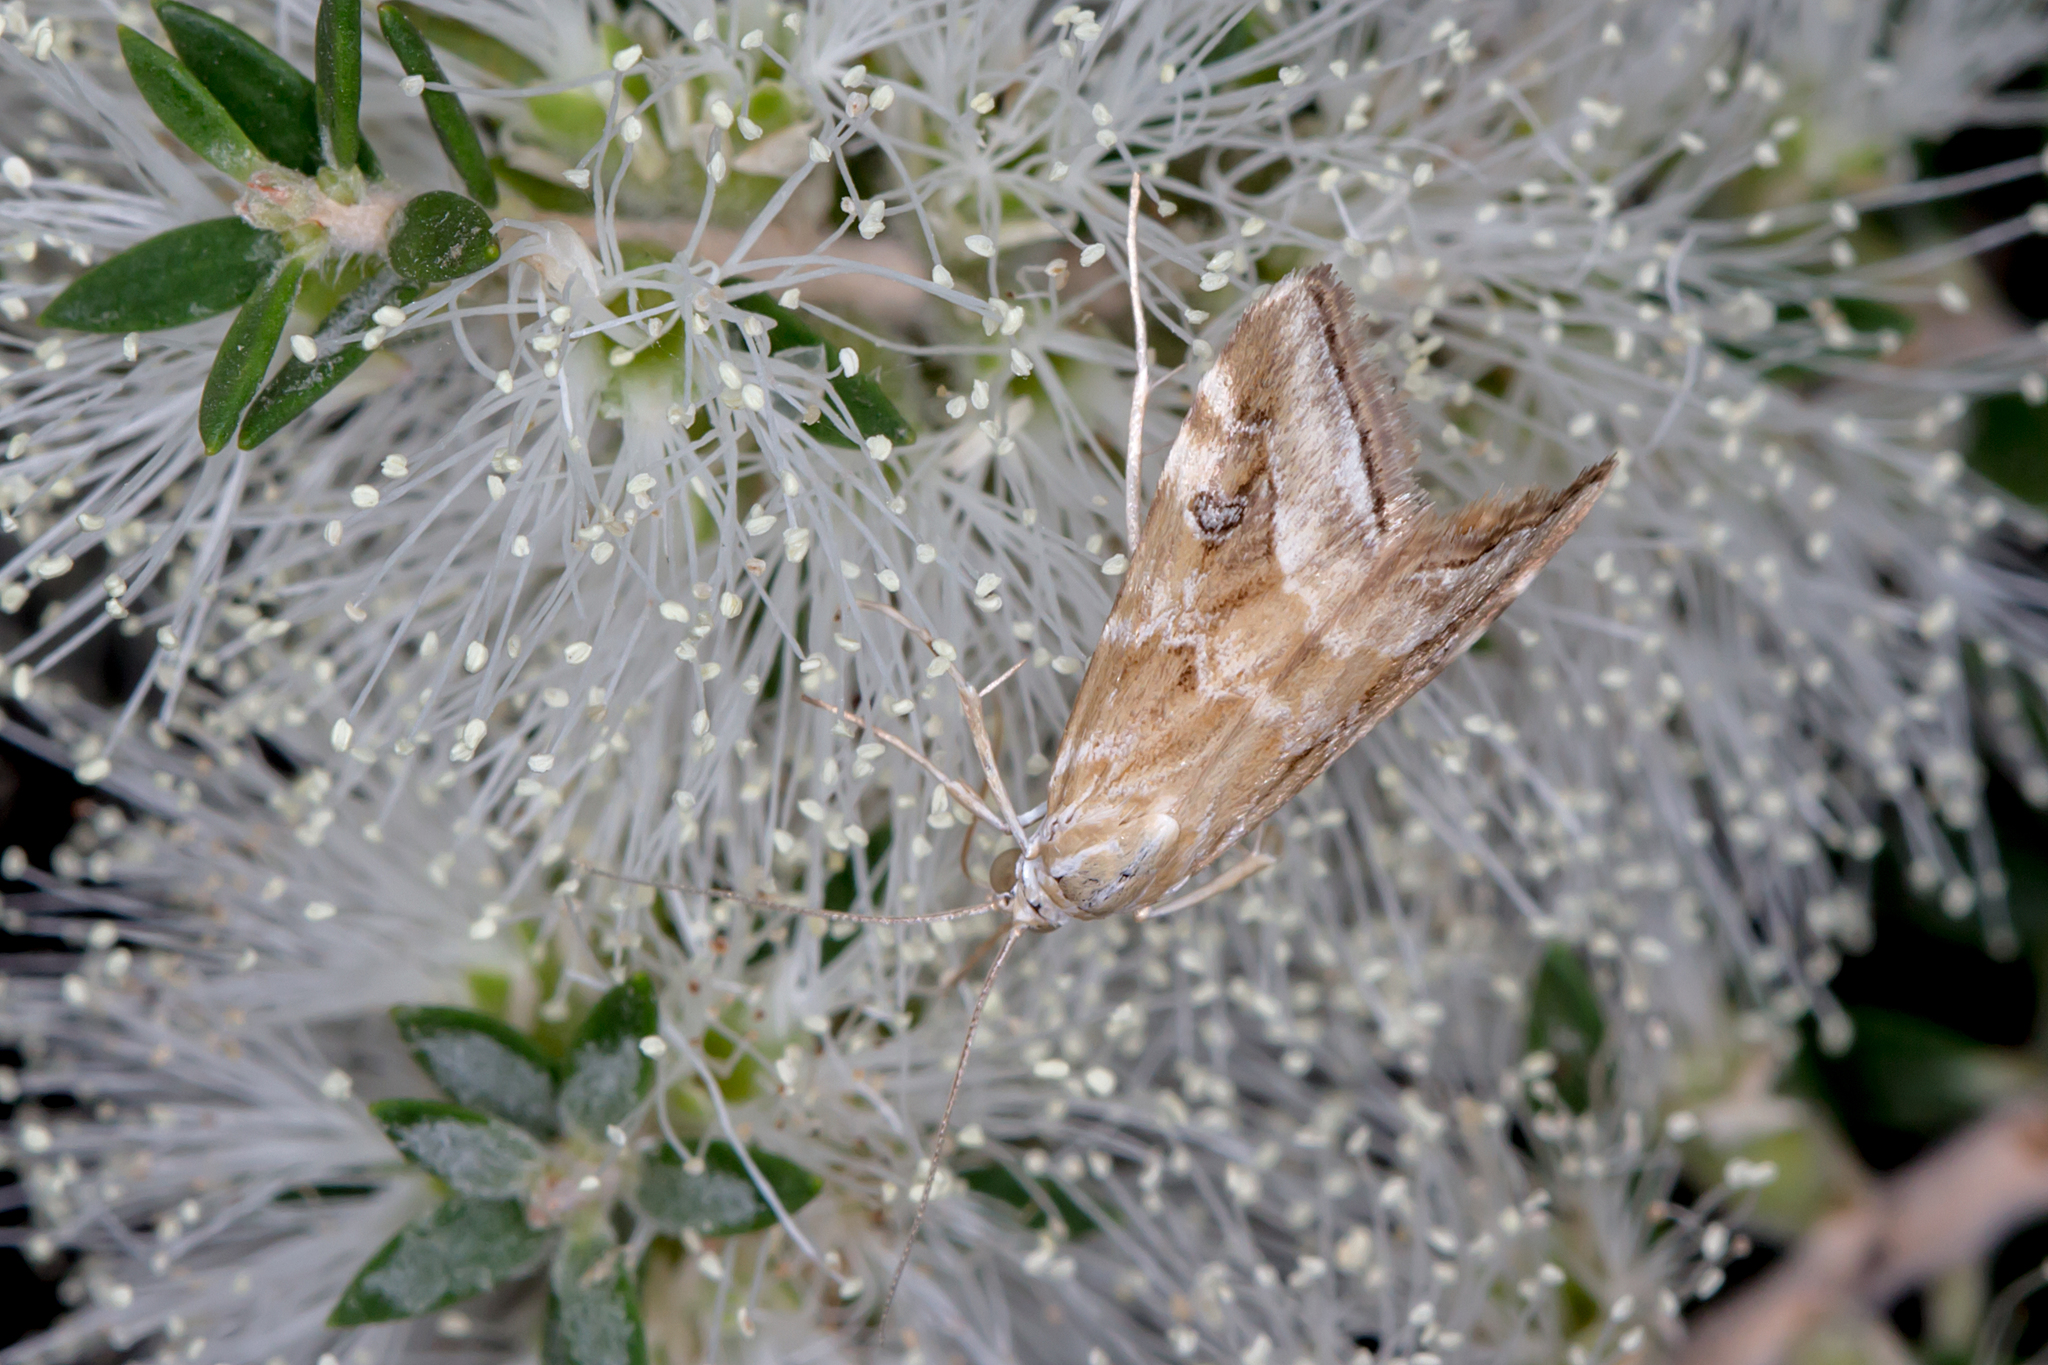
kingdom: Animalia
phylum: Arthropoda
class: Insecta
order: Lepidoptera
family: Crambidae
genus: Hellula
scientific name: Hellula hydralis
